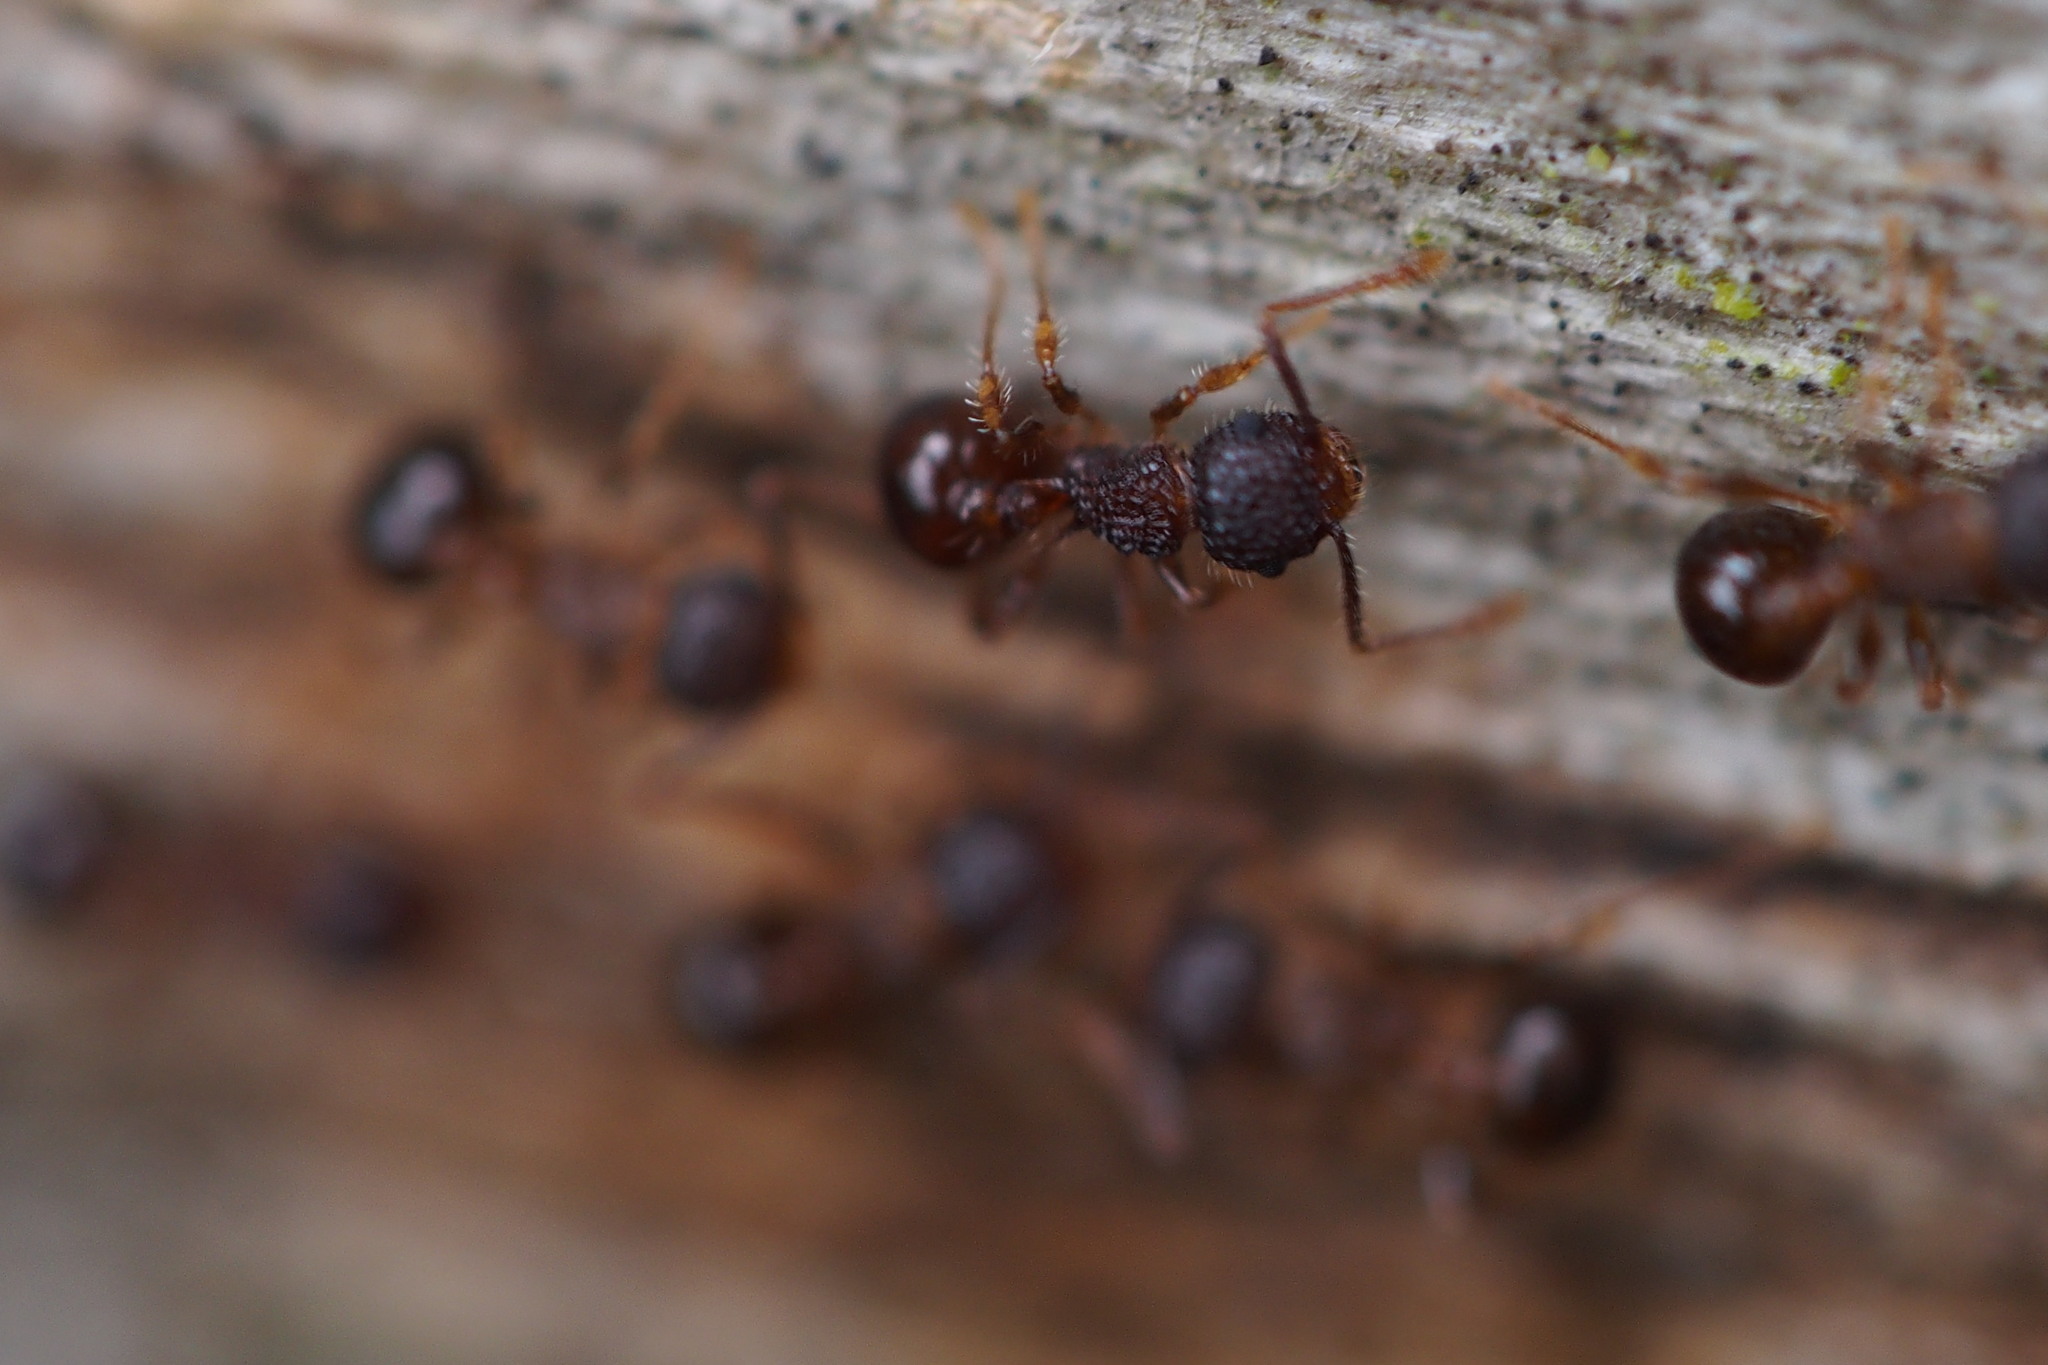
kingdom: Animalia
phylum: Arthropoda
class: Insecta
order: Hymenoptera
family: Formicidae
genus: Pristomyrmex
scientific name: Pristomyrmex punctatus
